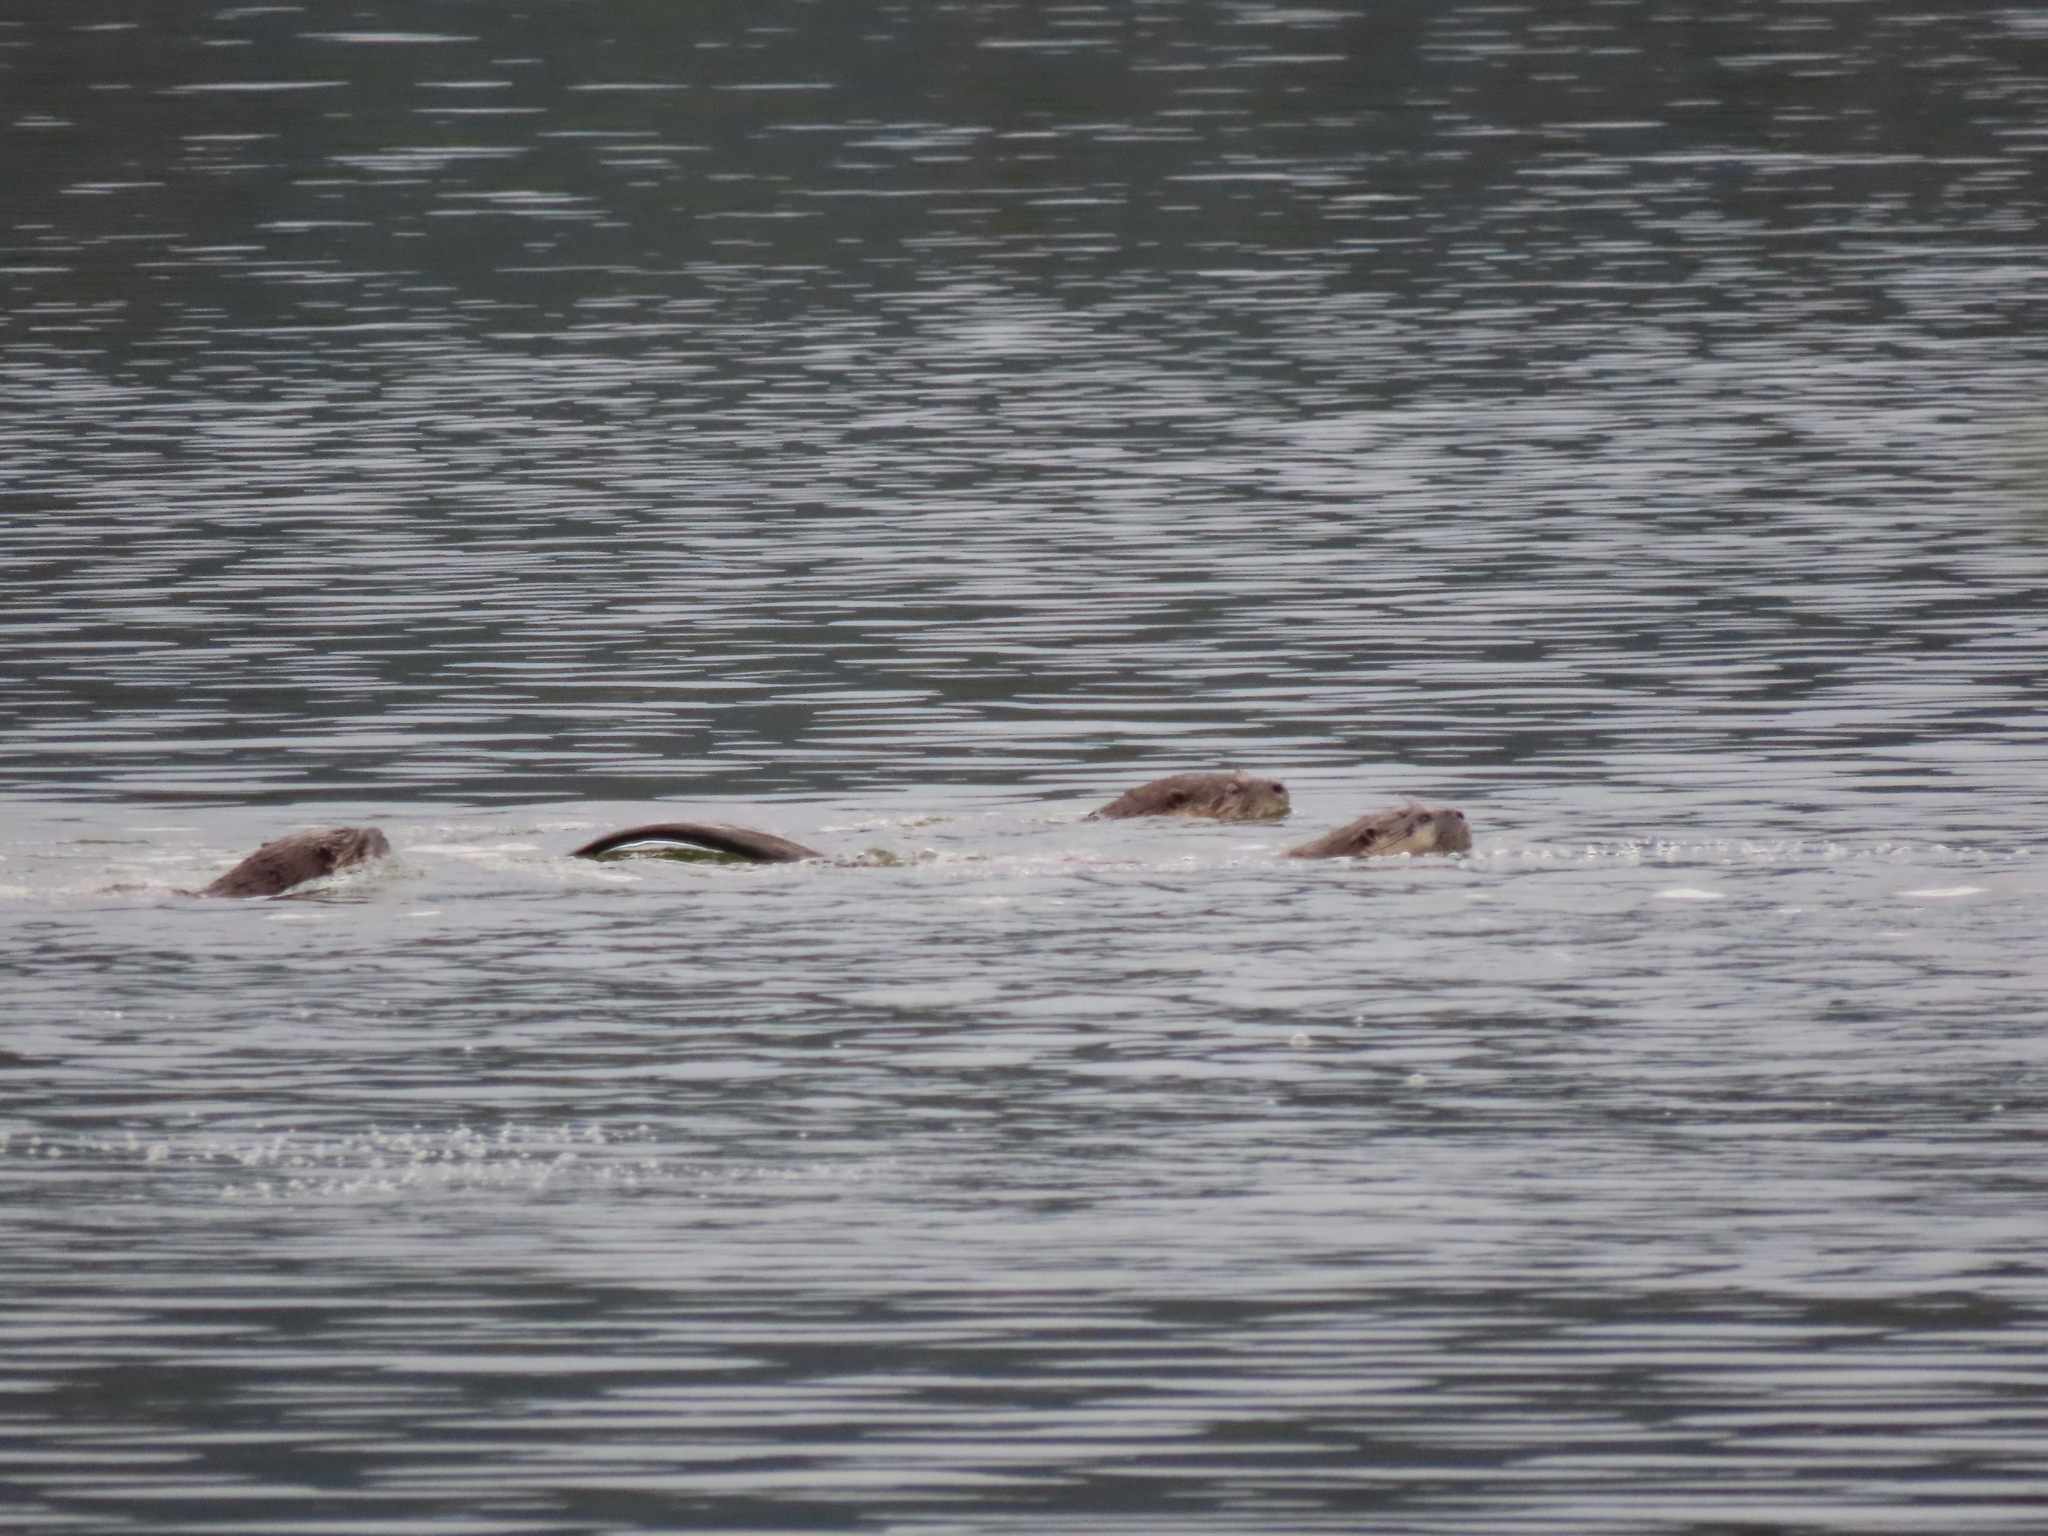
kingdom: Animalia
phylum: Chordata
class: Mammalia
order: Carnivora
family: Mustelidae
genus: Lontra
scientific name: Lontra canadensis
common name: North american river otter
